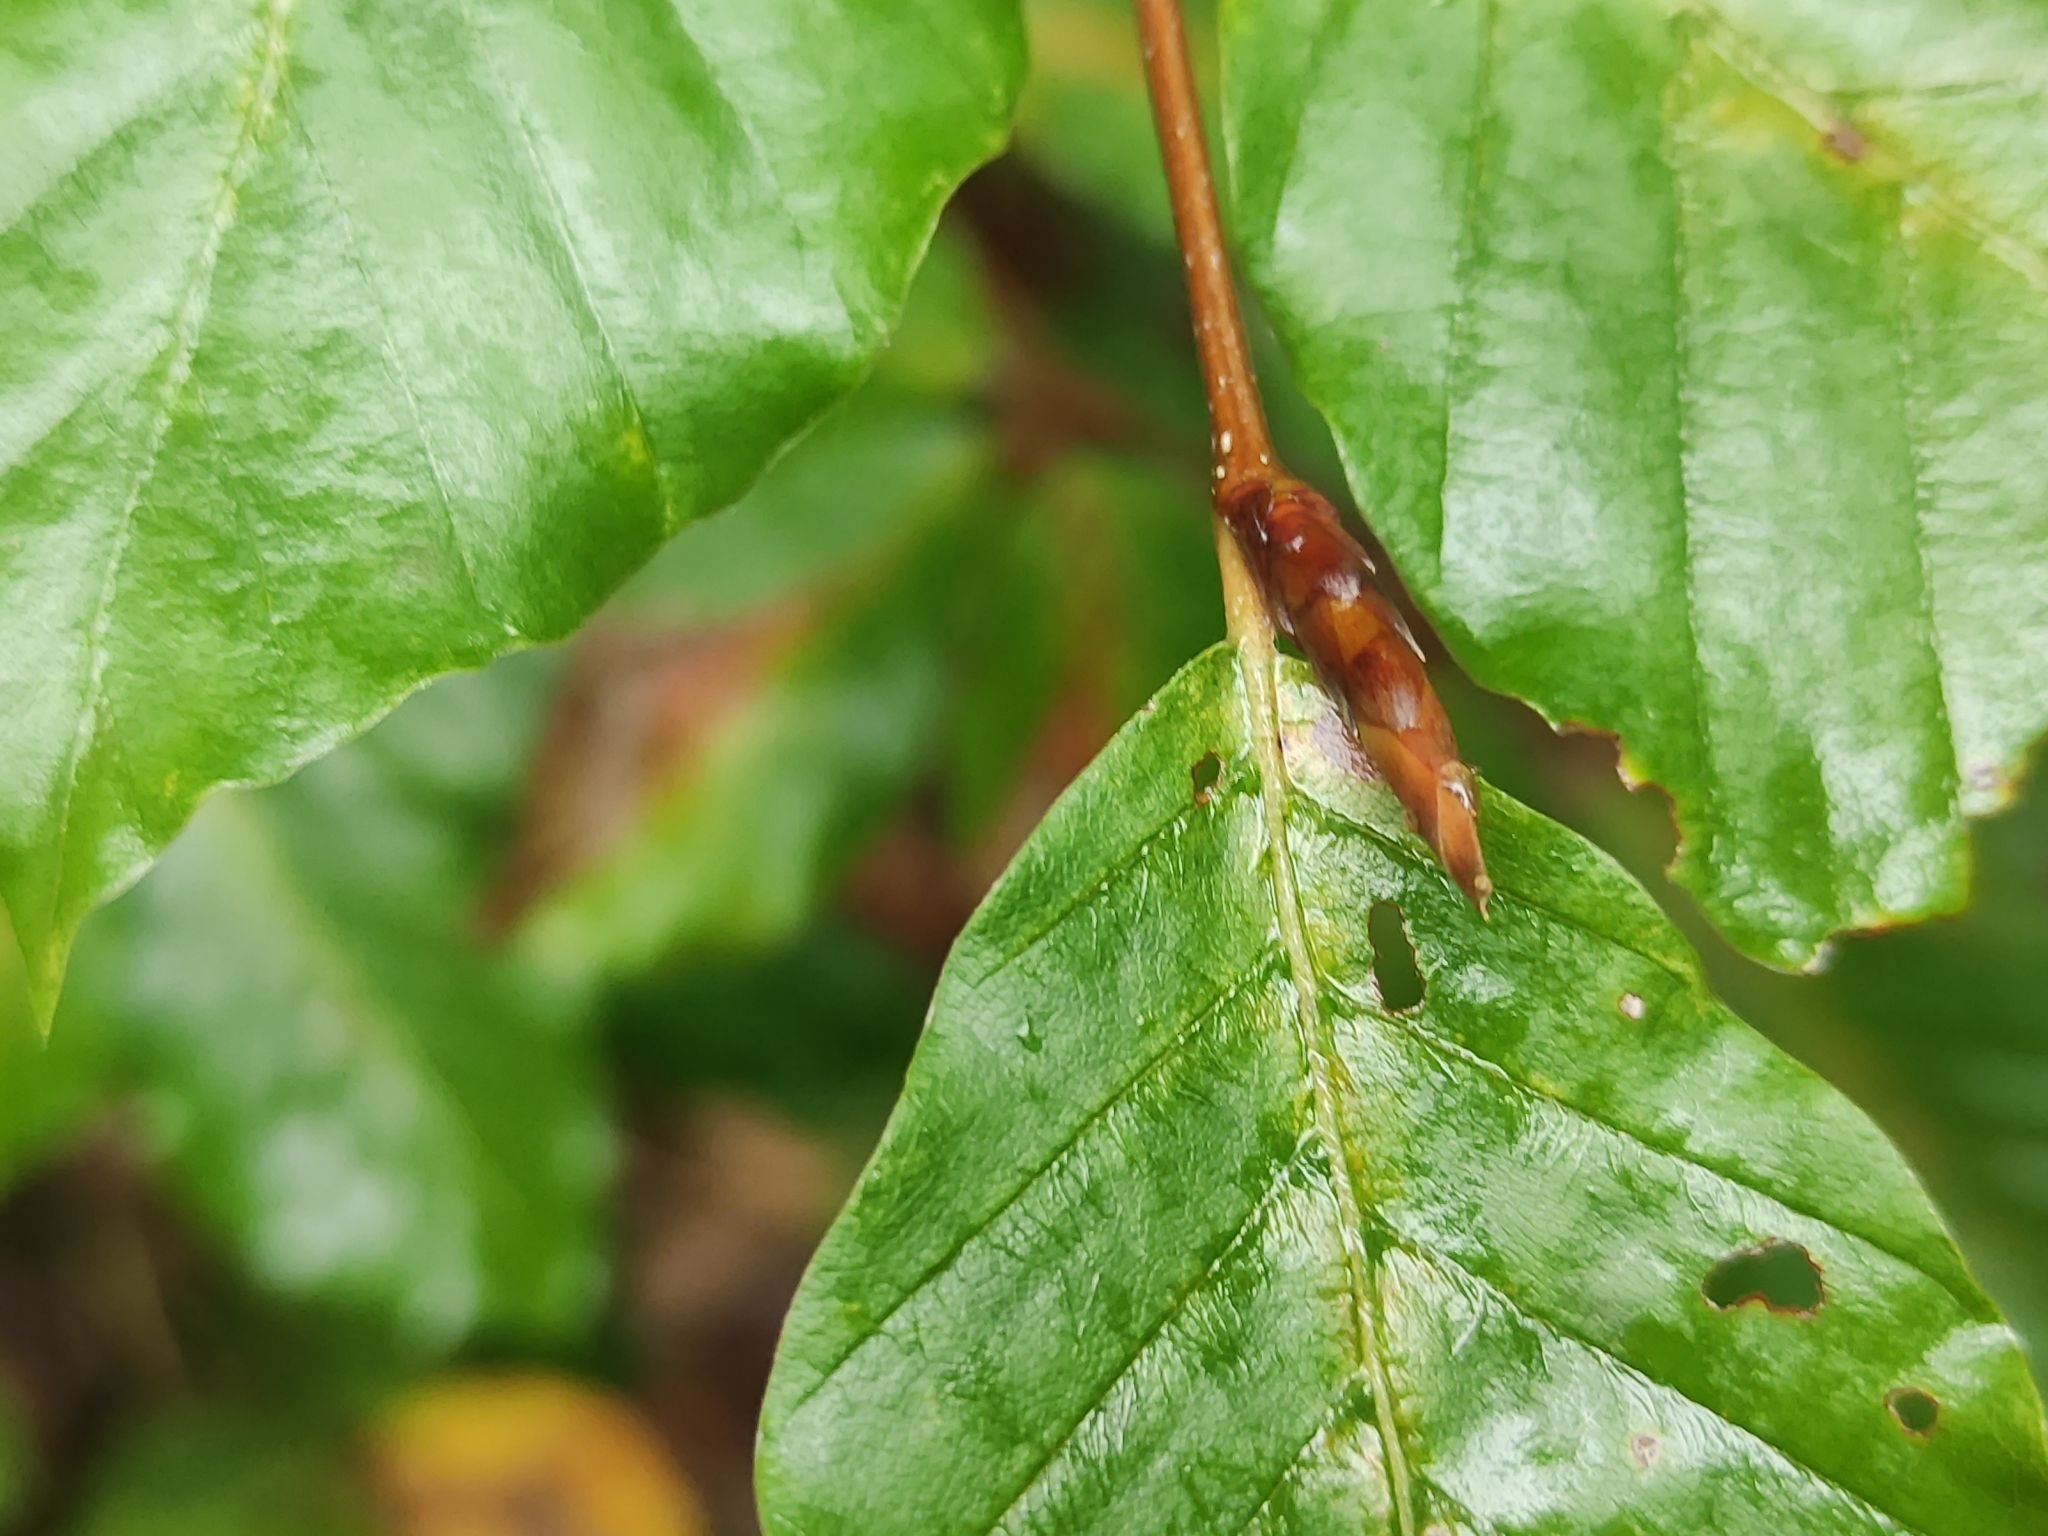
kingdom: Plantae
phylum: Tracheophyta
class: Magnoliopsida
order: Fagales
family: Fagaceae
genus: Fagus
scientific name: Fagus sylvatica
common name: Beech
